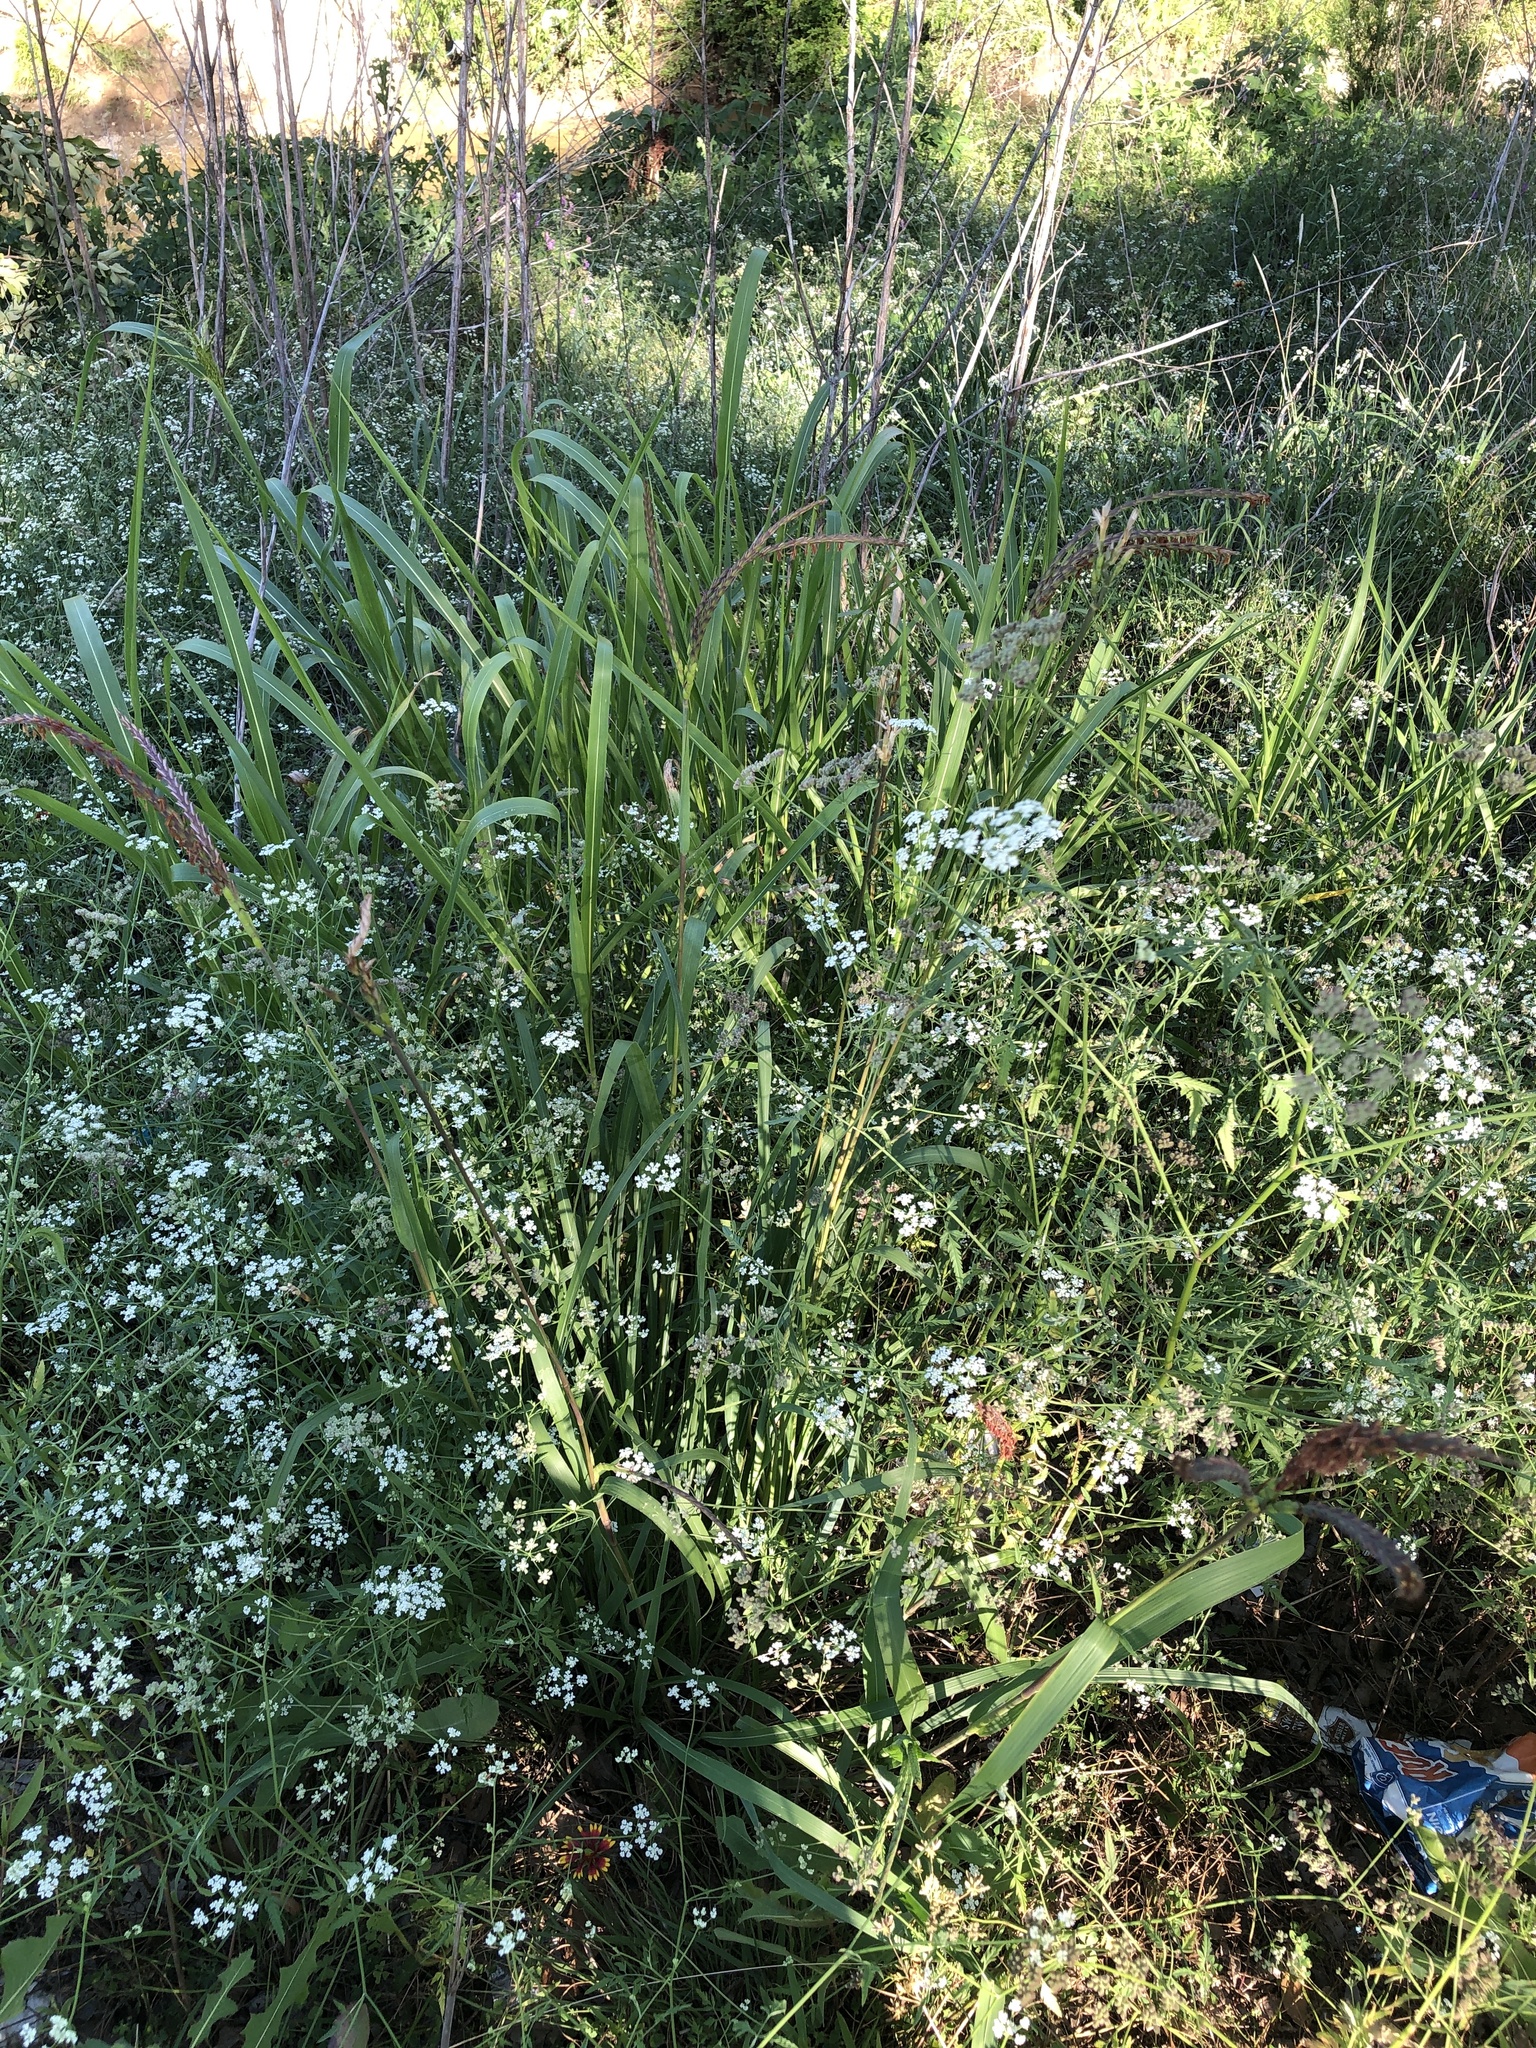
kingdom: Plantae
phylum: Tracheophyta
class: Liliopsida
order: Poales
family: Poaceae
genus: Tripsacum
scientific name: Tripsacum dactyloides
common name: Buffalo-grass
